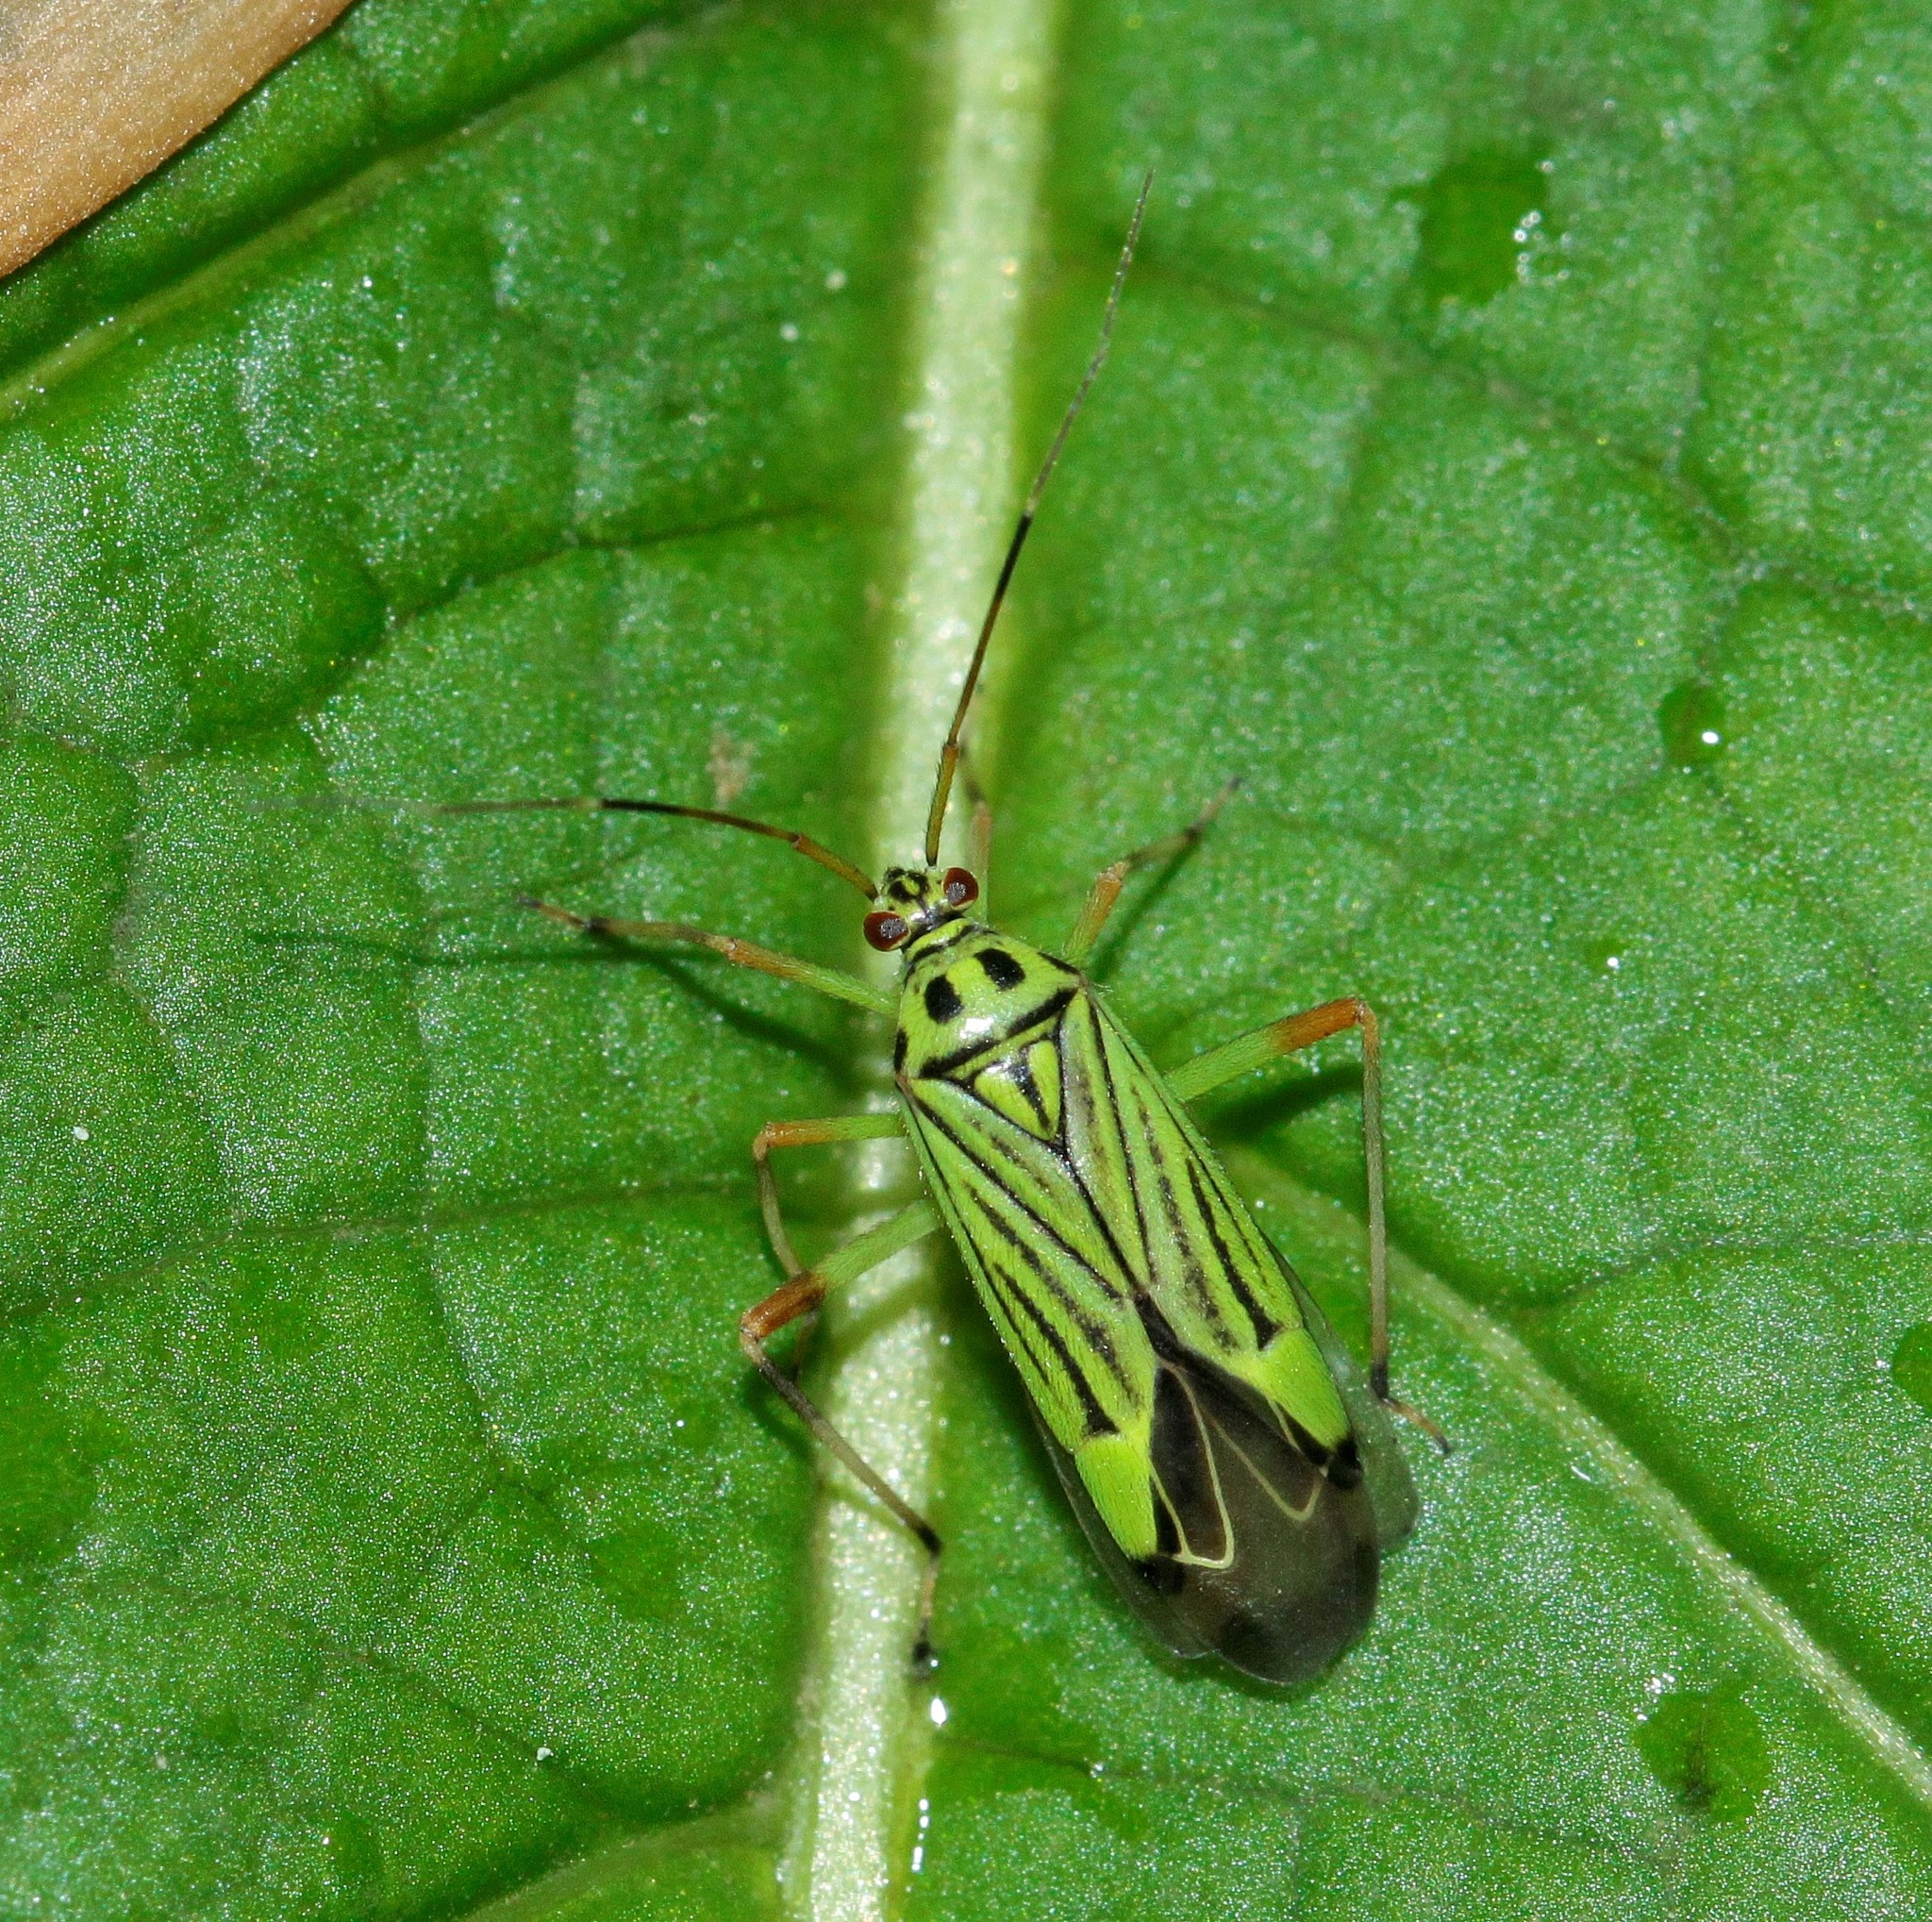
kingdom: Animalia
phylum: Arthropoda
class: Insecta
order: Hemiptera
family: Miridae
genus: Mermitelocerus
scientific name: Mermitelocerus schmidtii
